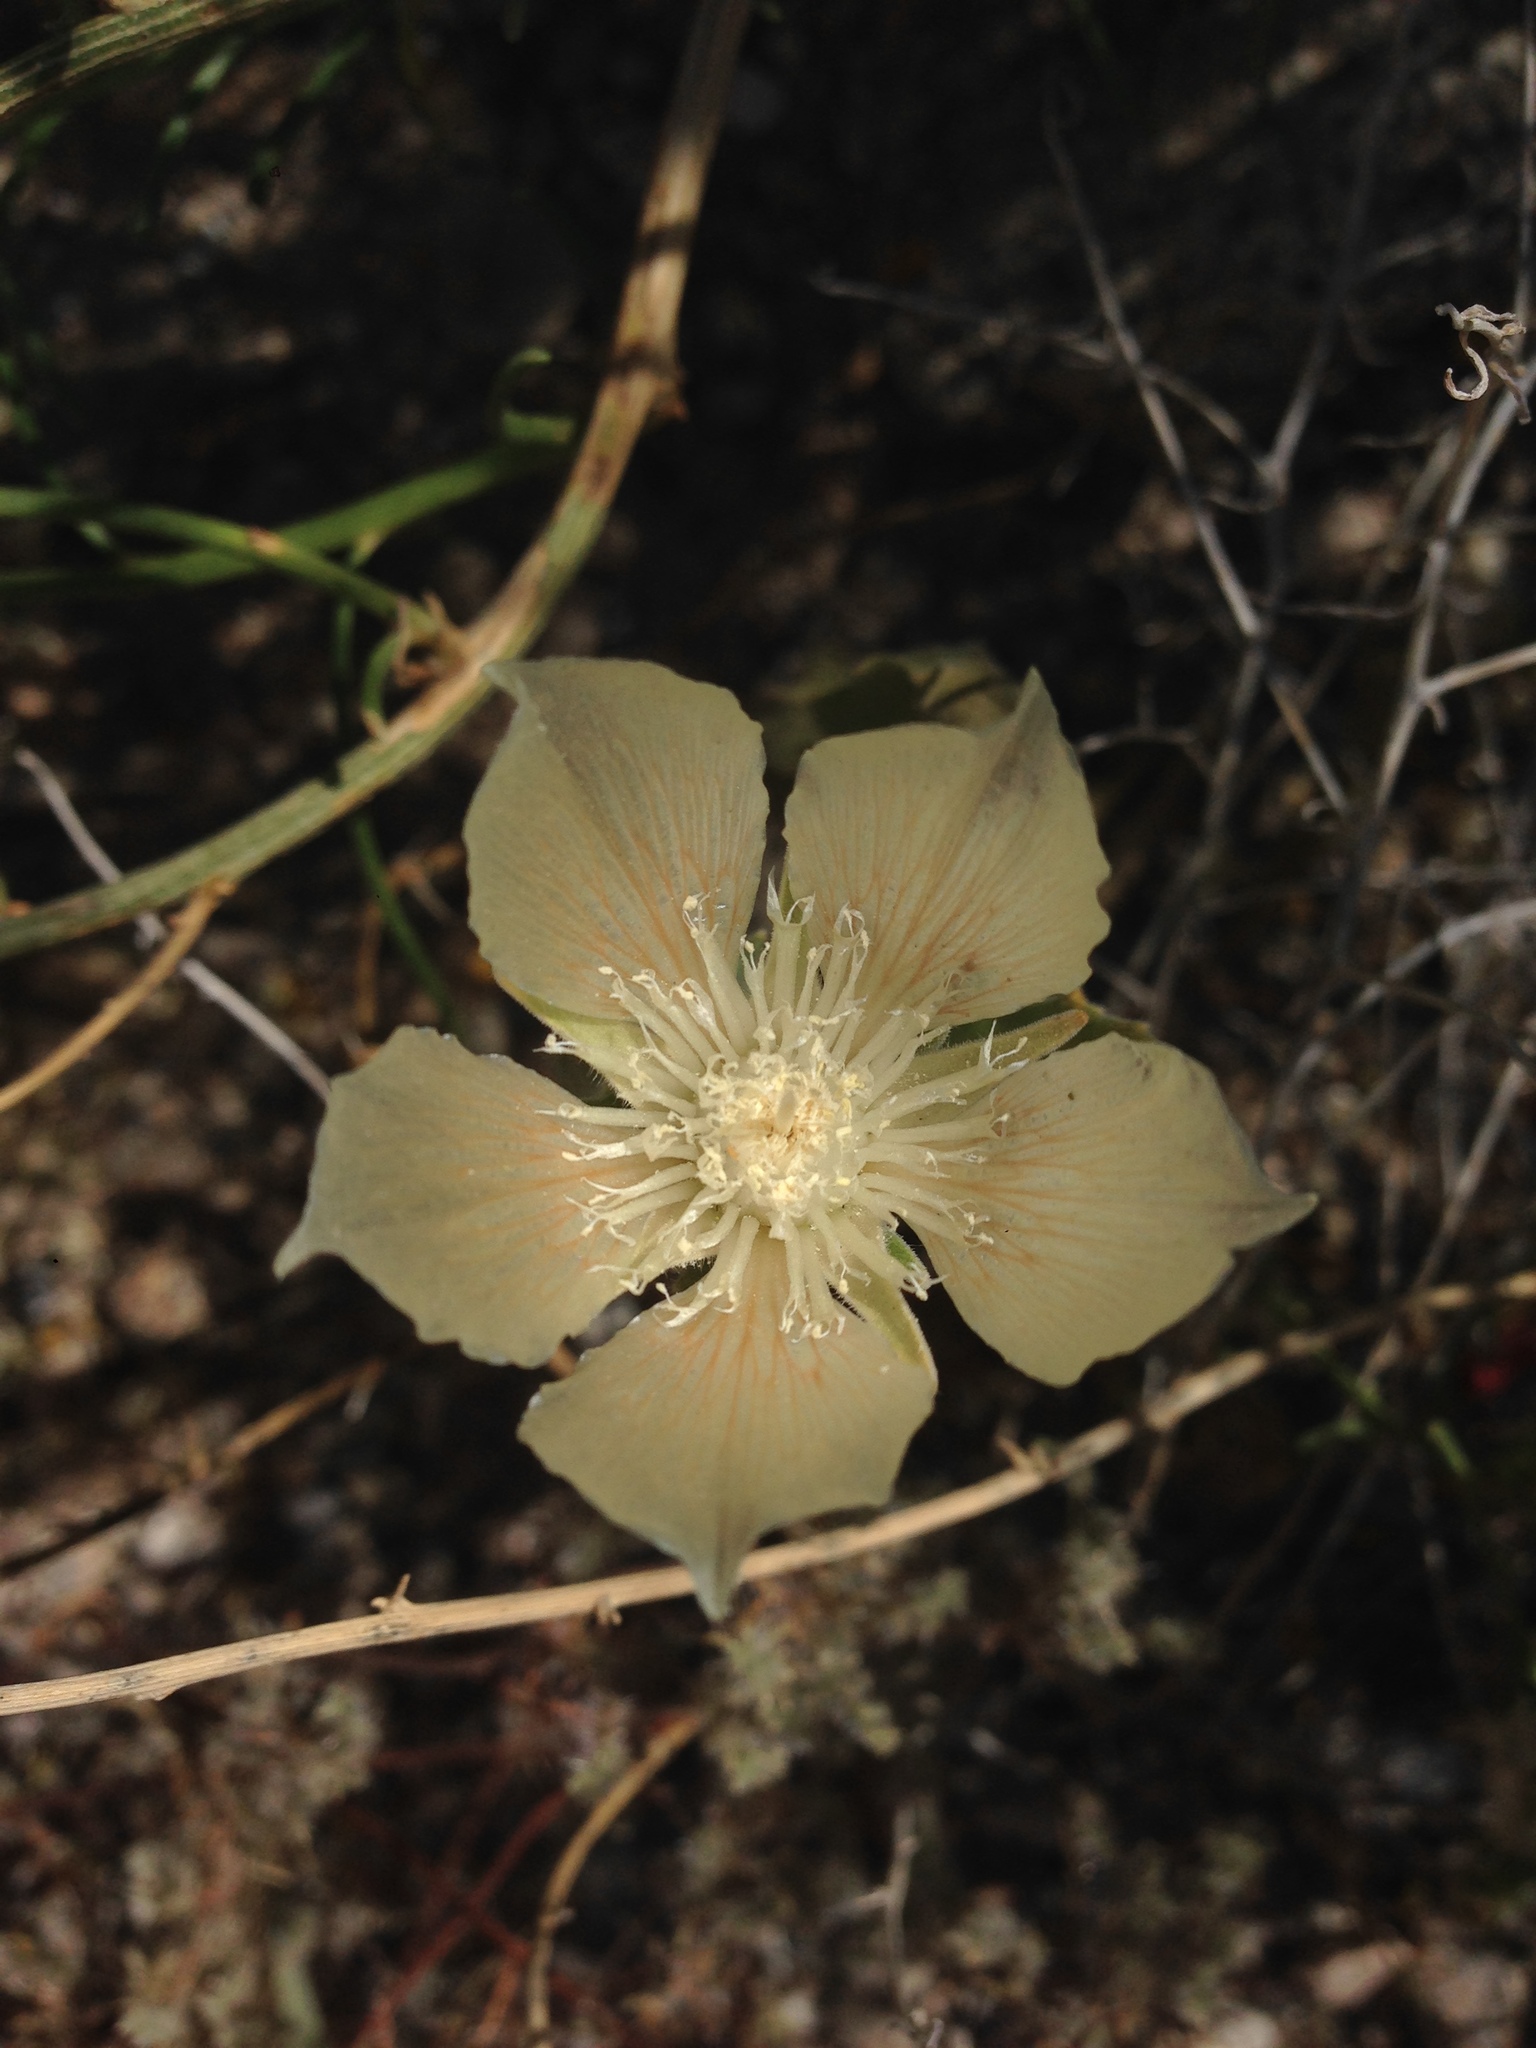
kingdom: Plantae
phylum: Tracheophyta
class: Magnoliopsida
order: Cornales
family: Loasaceae
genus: Mentzelia
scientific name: Mentzelia involucrata
